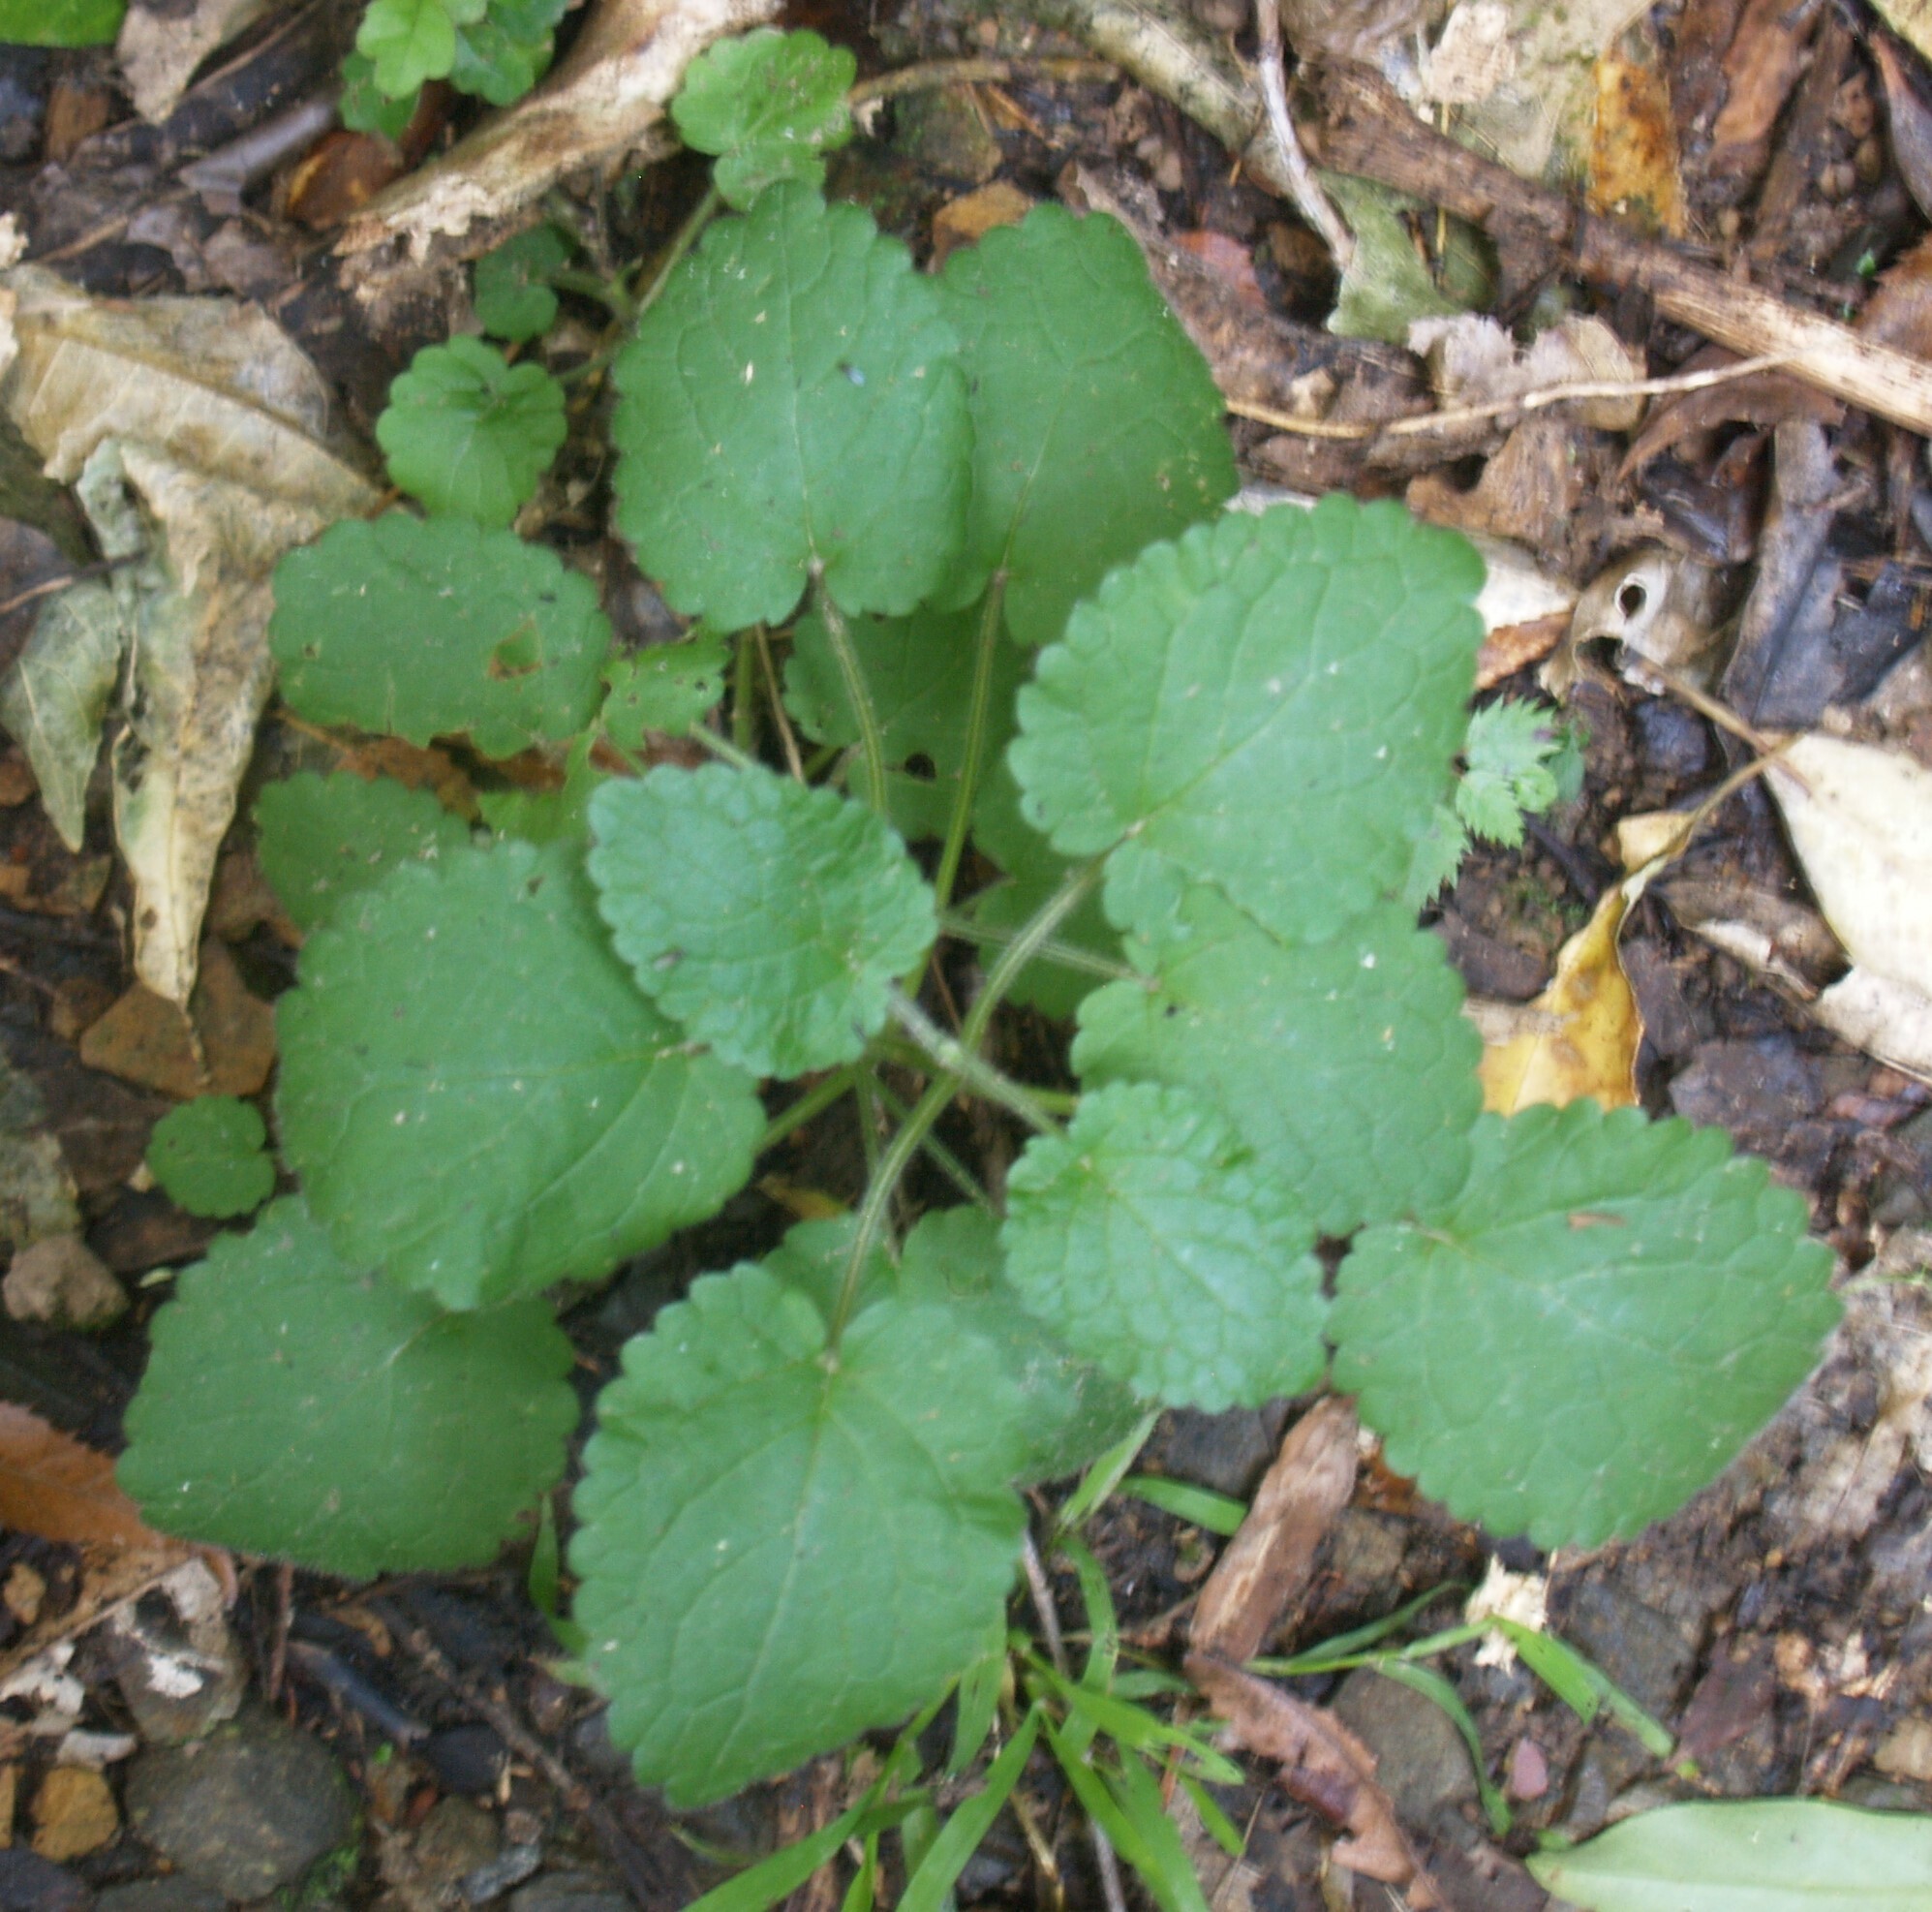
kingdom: Plantae
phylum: Tracheophyta
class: Magnoliopsida
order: Lamiales
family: Lamiaceae
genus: Stachys
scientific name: Stachys sylvatica
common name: Hedge woundwort
